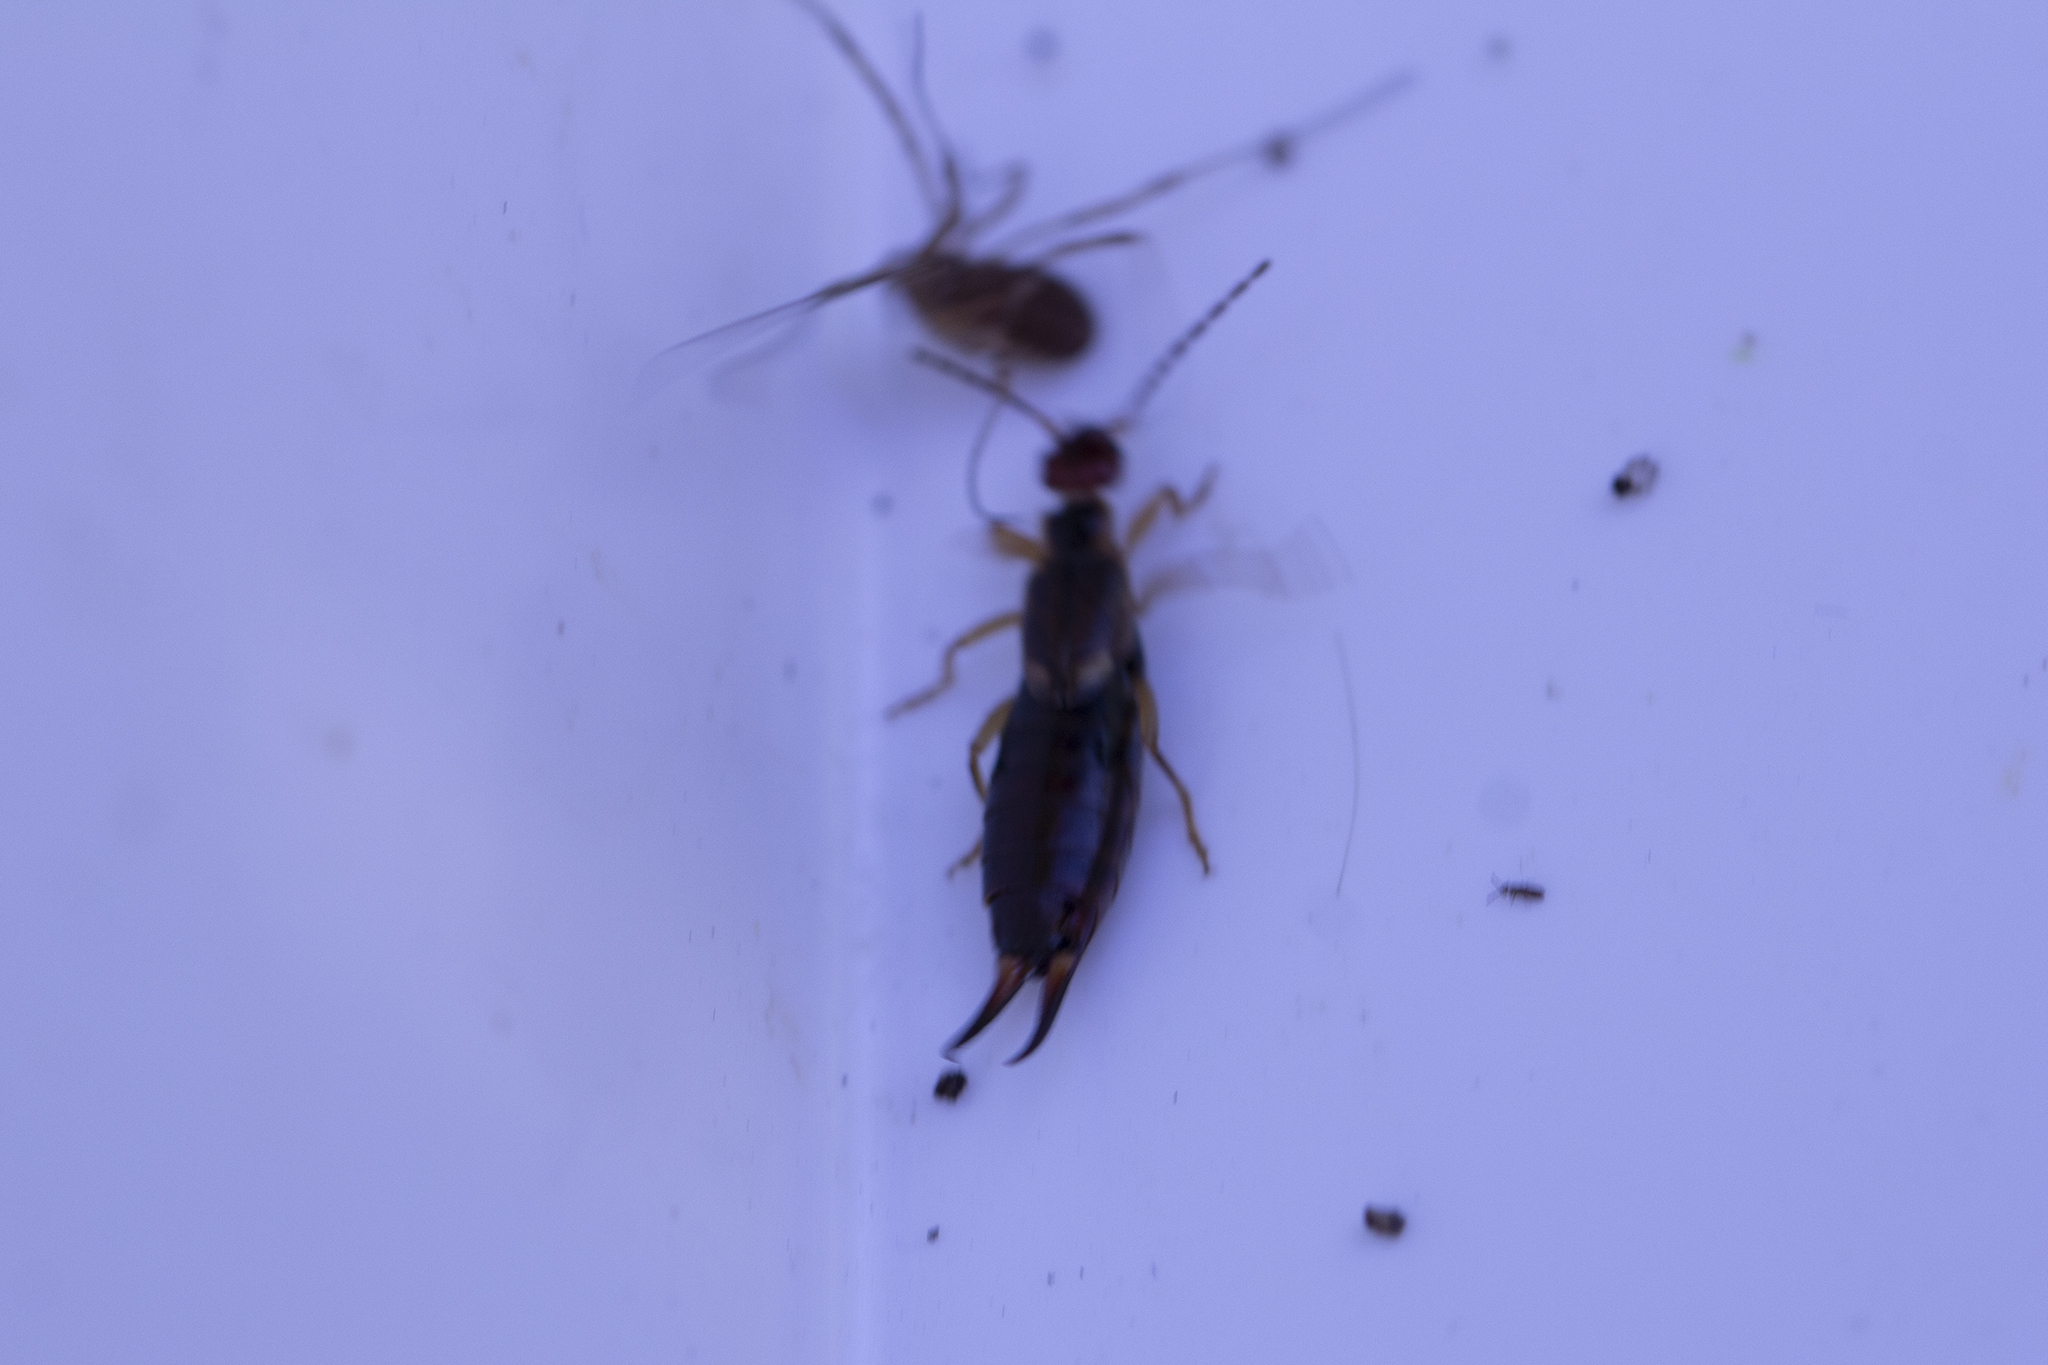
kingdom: Animalia
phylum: Arthropoda
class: Insecta
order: Dermaptera
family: Forficulidae
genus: Forficula
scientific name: Forficula
